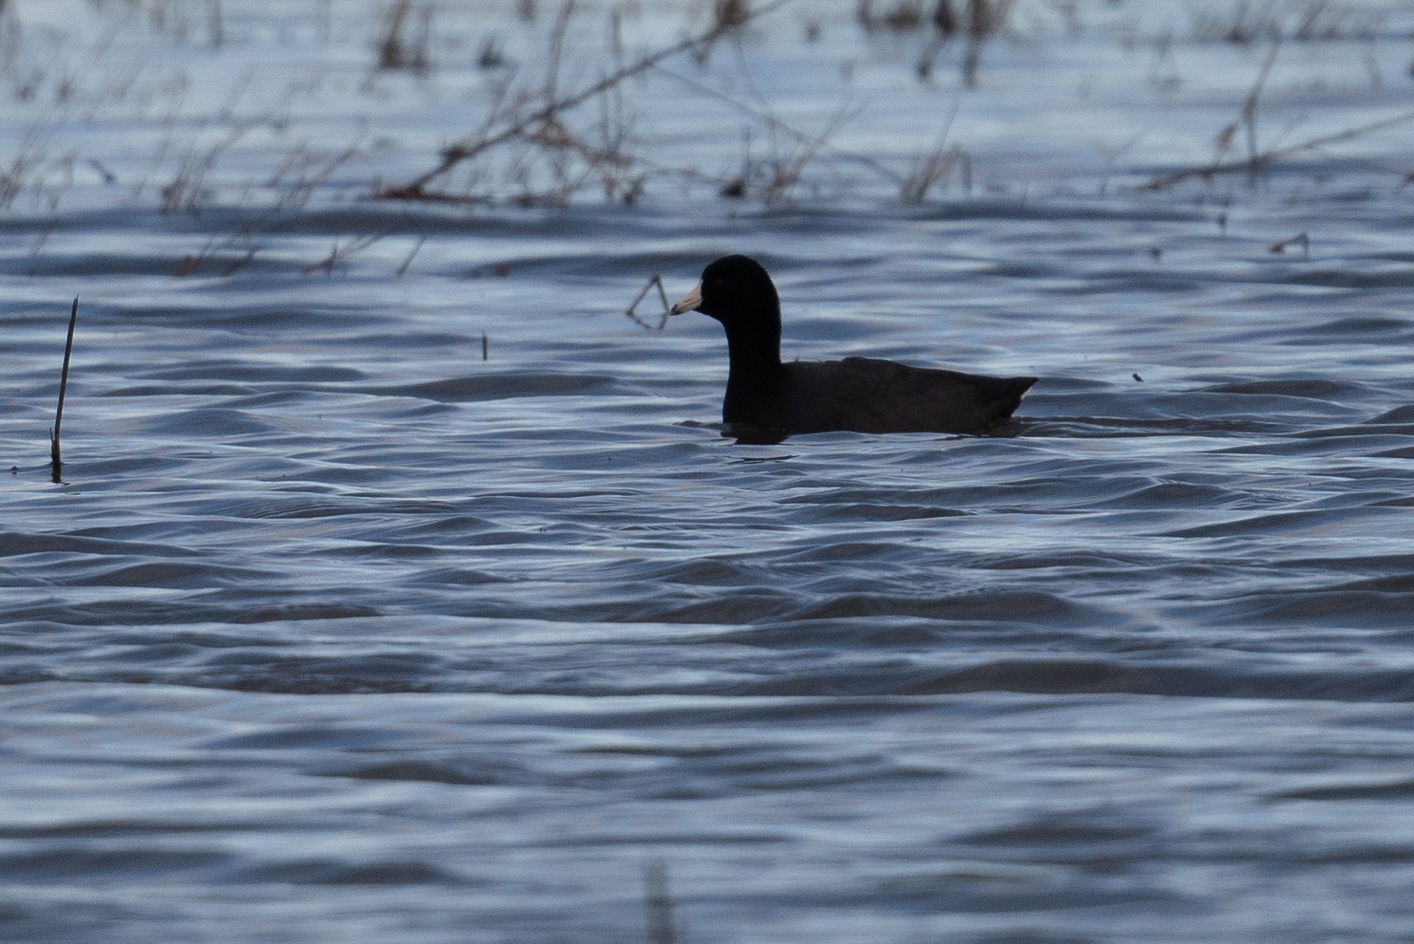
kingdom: Animalia
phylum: Chordata
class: Aves
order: Gruiformes
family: Rallidae
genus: Fulica
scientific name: Fulica americana
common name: American coot
